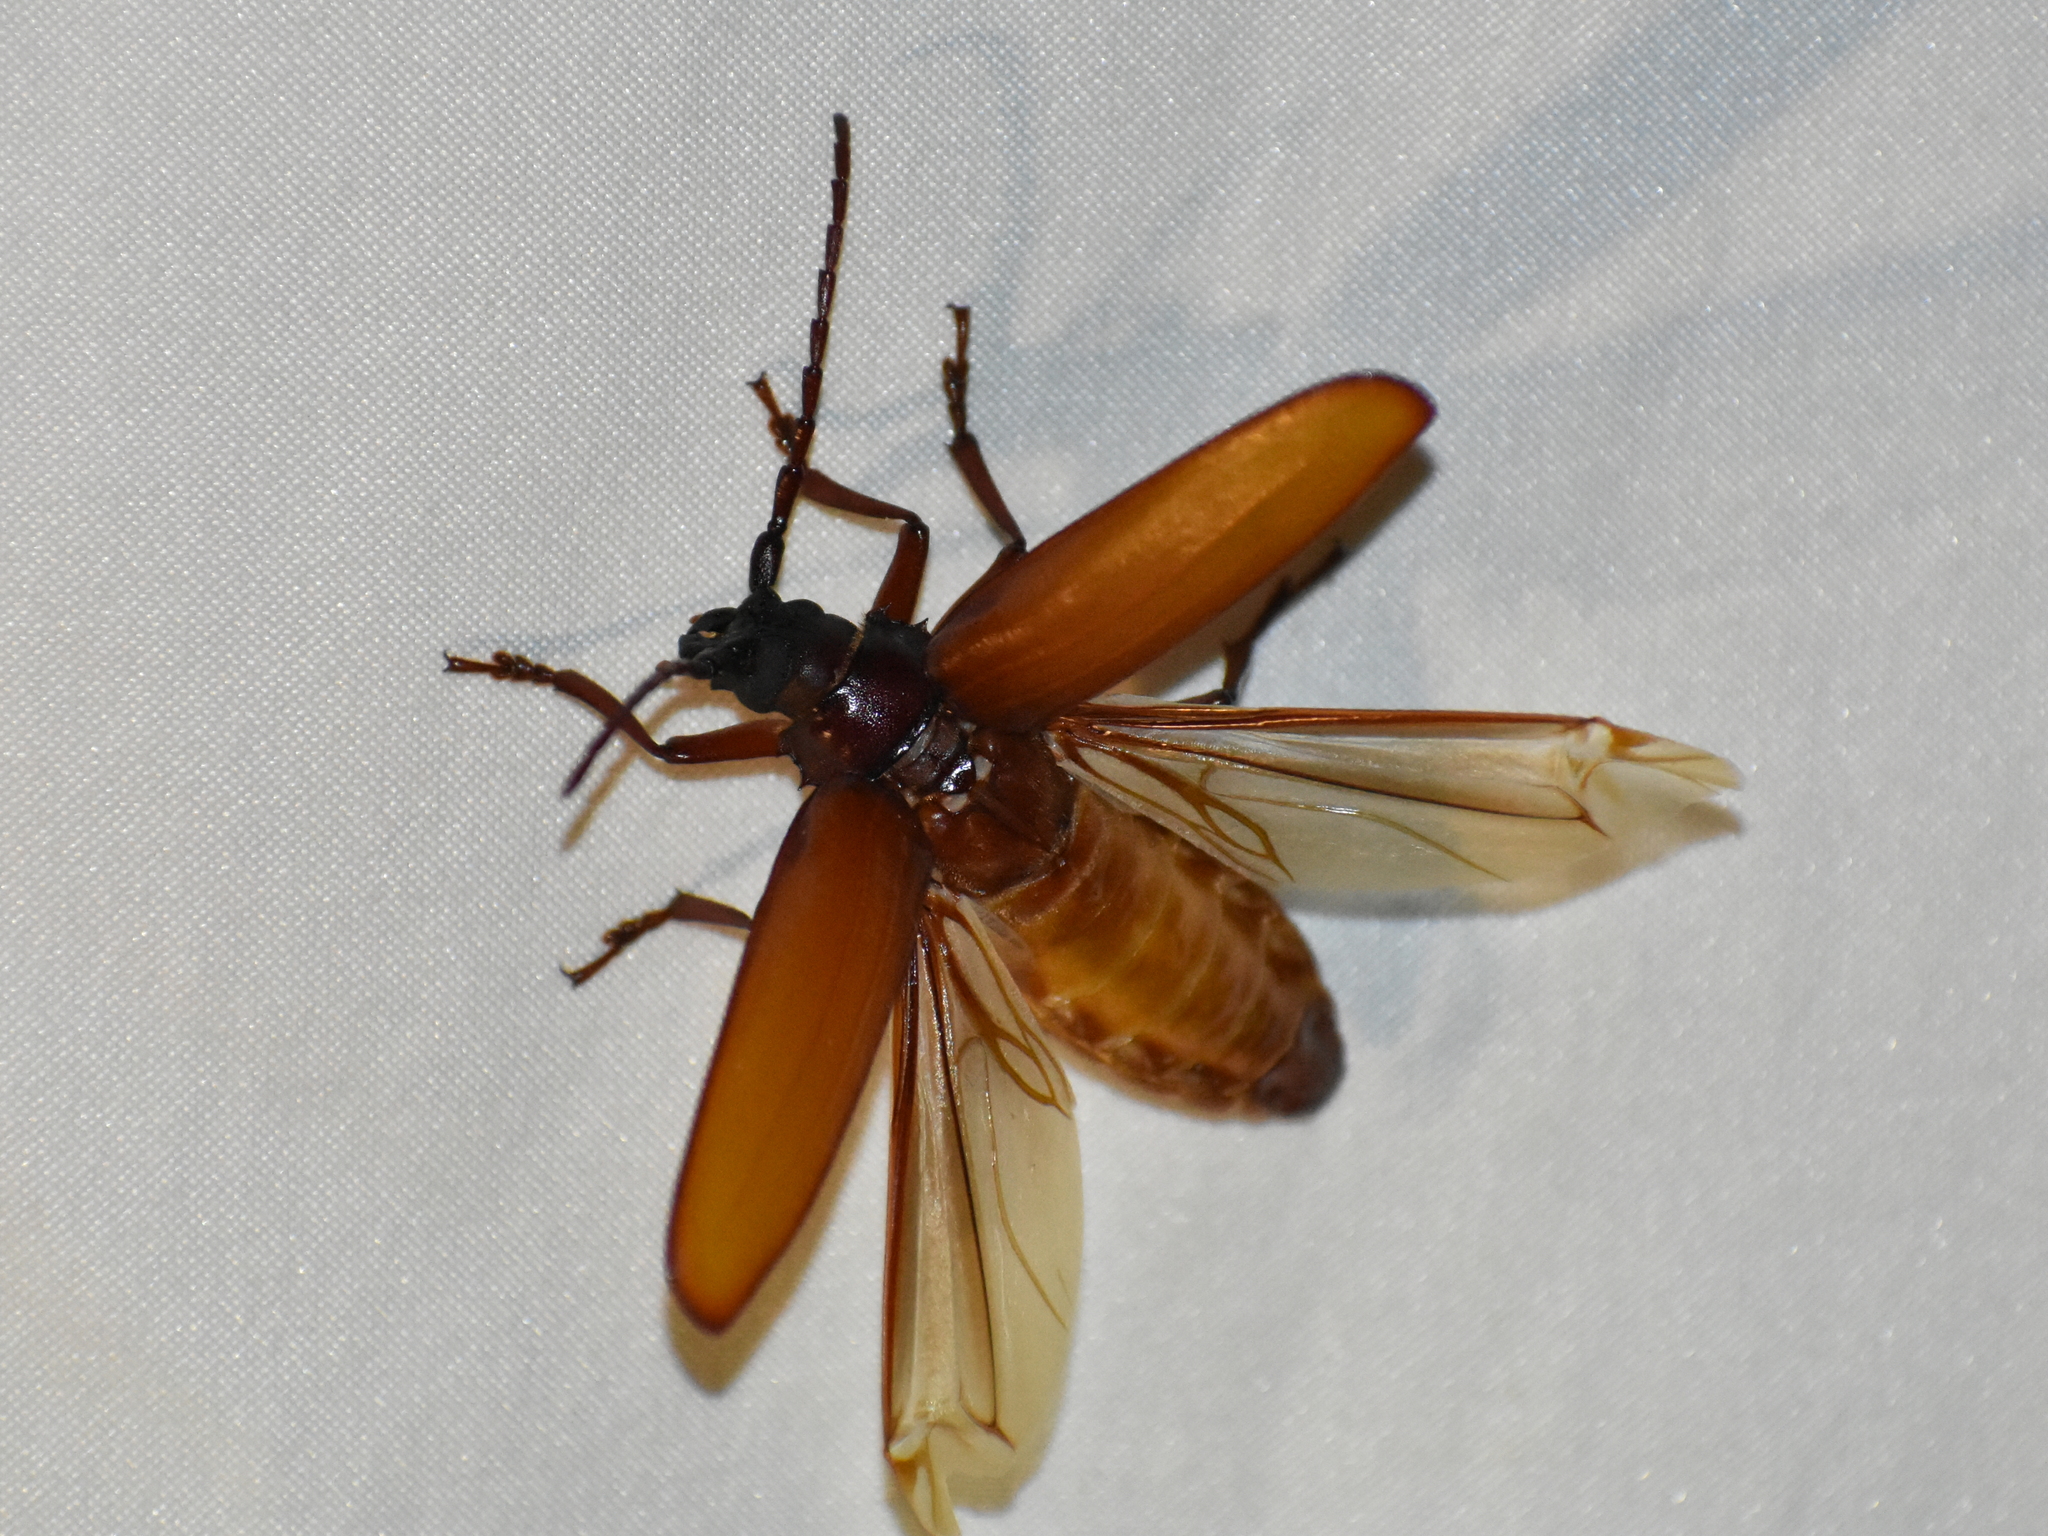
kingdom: Animalia
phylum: Arthropoda
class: Insecta
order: Coleoptera
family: Cerambycidae
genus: Orthosoma
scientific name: Orthosoma brunneum
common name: Brown prionid beetle
